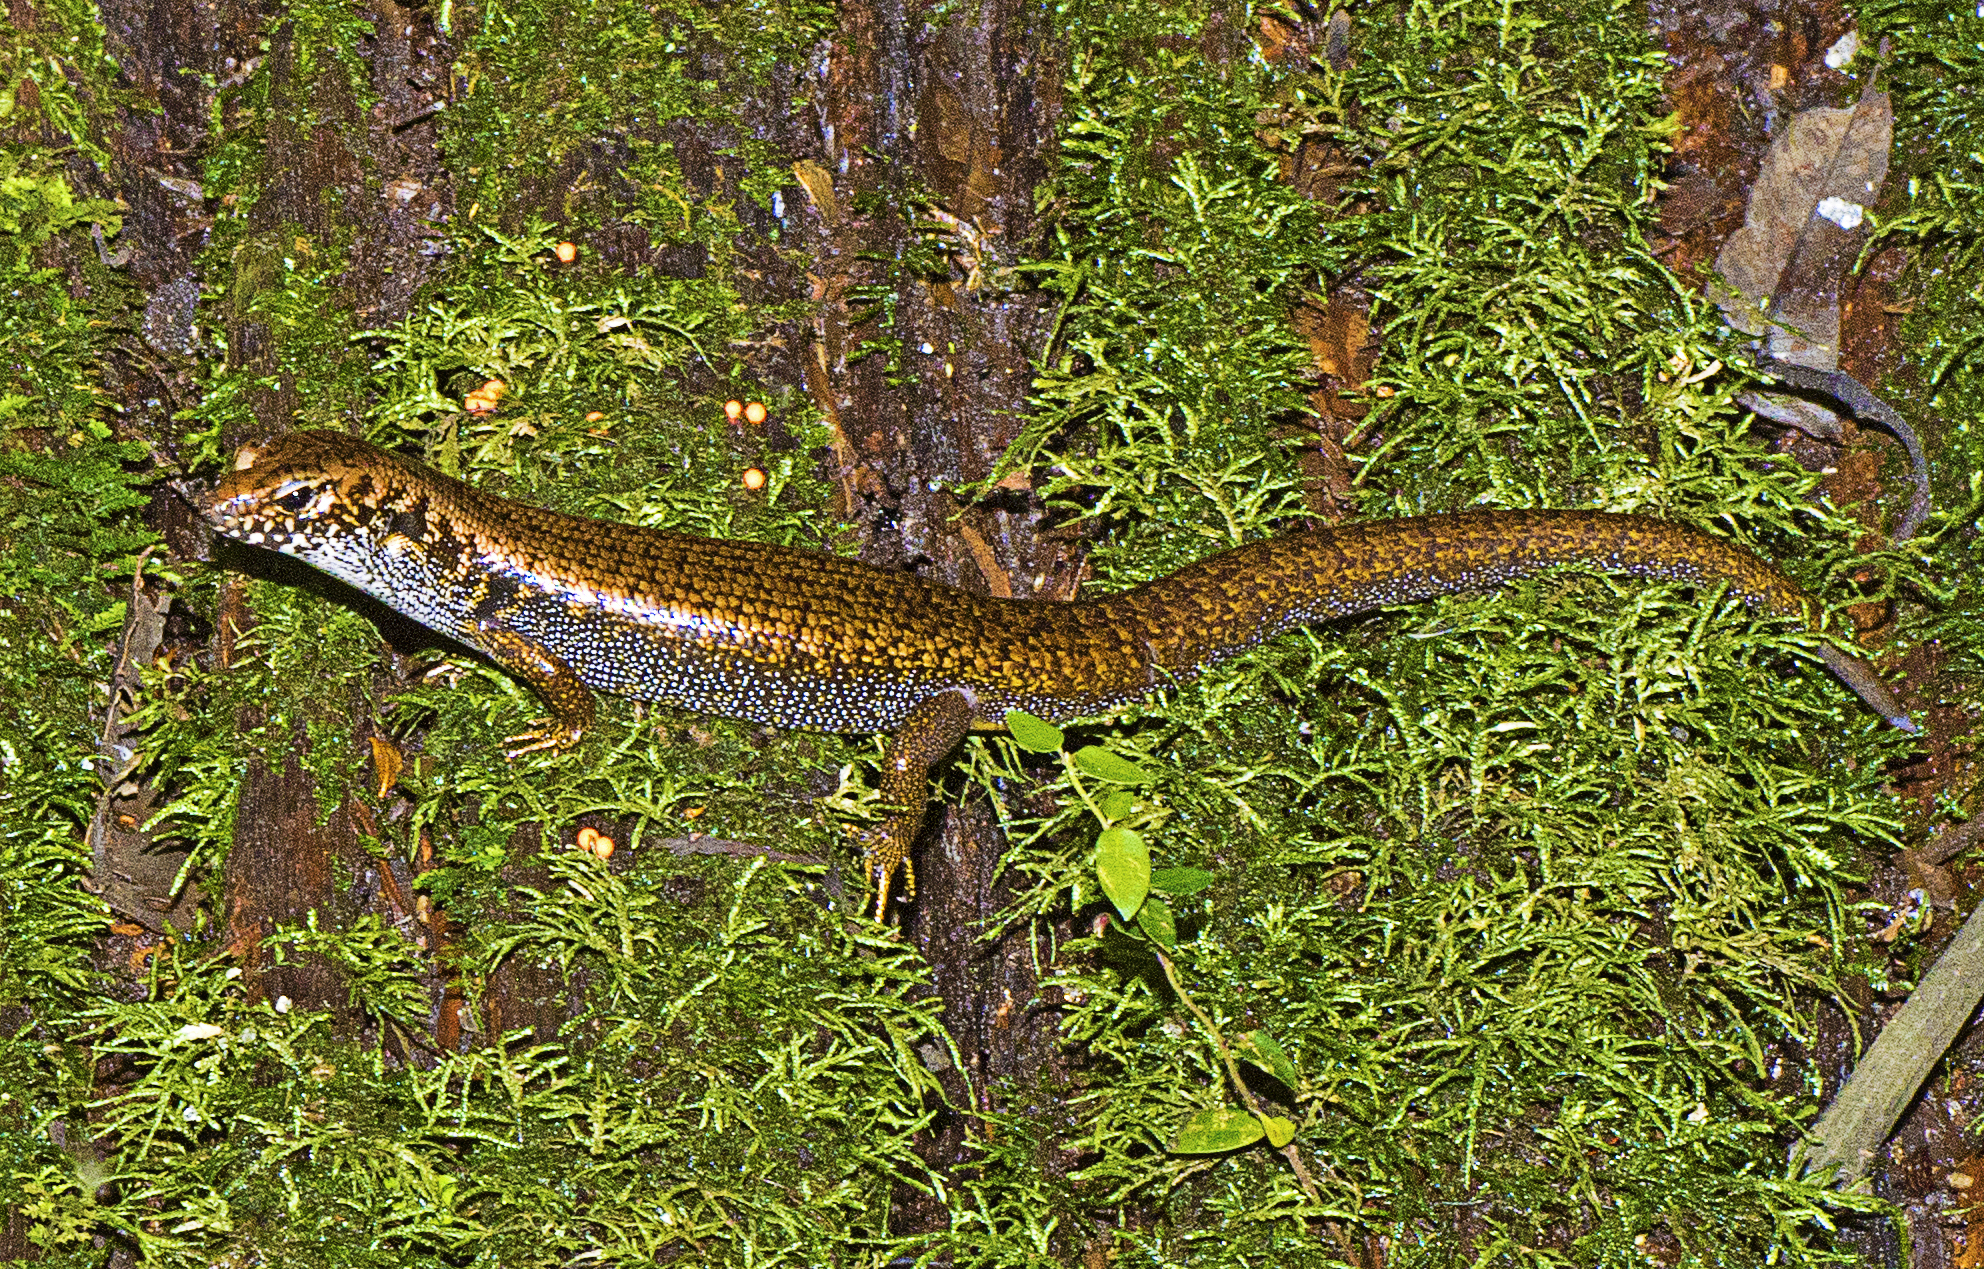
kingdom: Animalia
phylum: Chordata
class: Squamata
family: Scincidae
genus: Silvascincus
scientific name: Silvascincus murrayi
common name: Blue-speckled forest-skink
